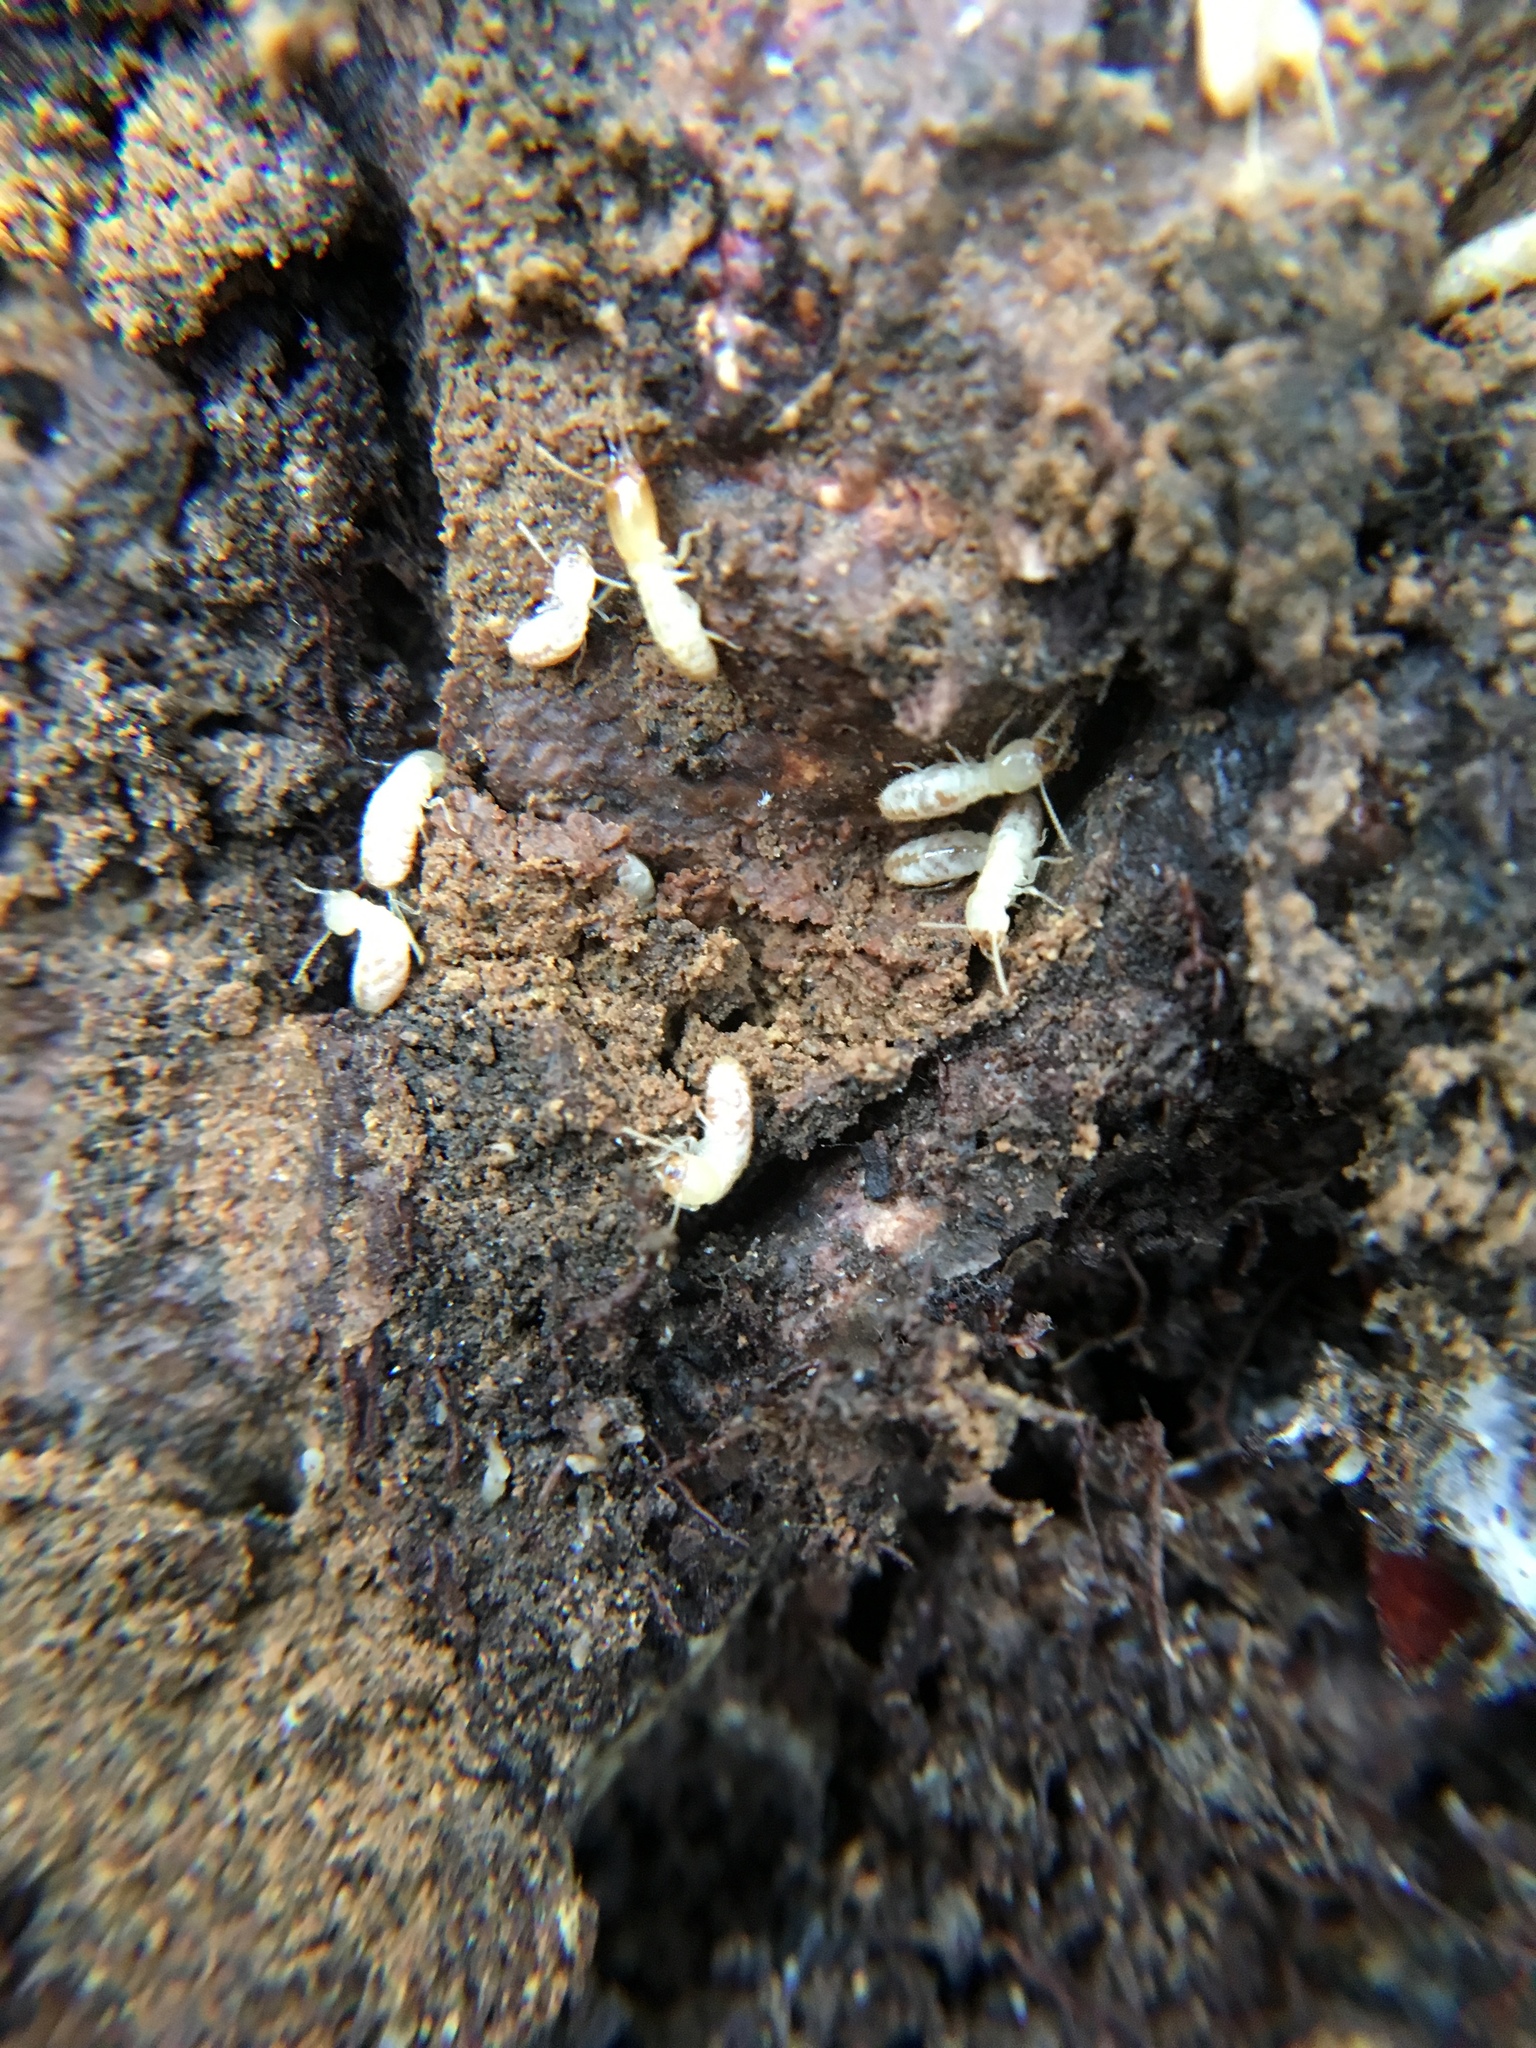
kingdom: Animalia
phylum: Arthropoda
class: Insecta
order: Blattodea
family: Rhinotermitidae
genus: Reticulitermes
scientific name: Reticulitermes flavipes
